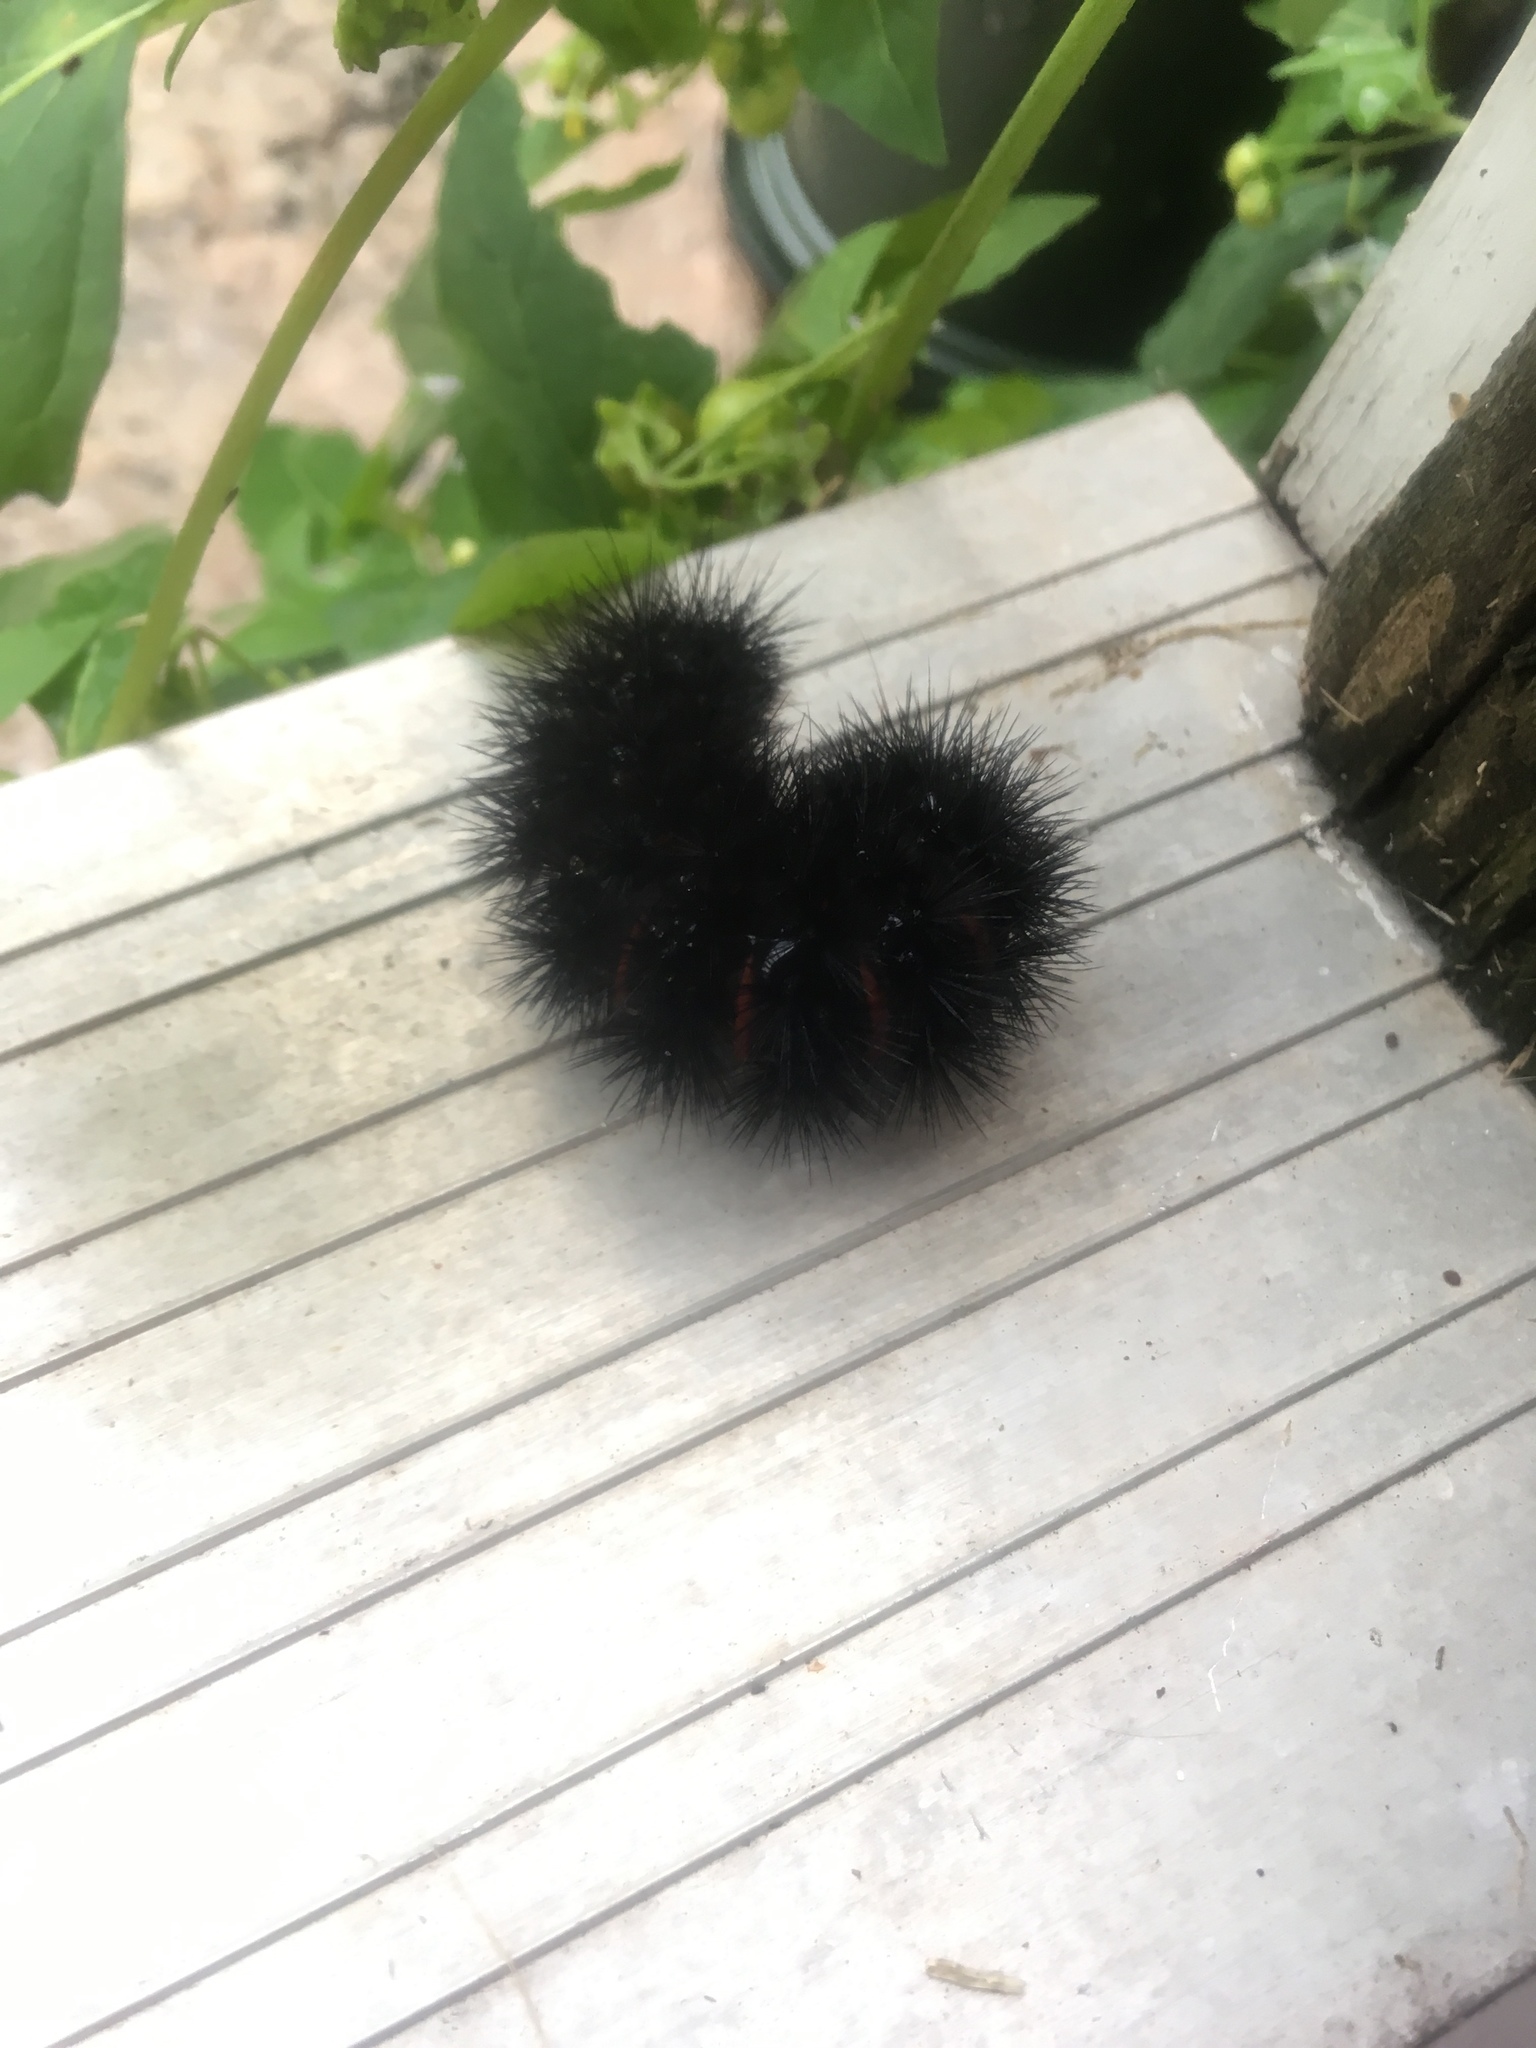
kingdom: Animalia
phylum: Arthropoda
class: Insecta
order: Lepidoptera
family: Erebidae
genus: Hypercompe
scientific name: Hypercompe scribonia
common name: Giant leopard moth
